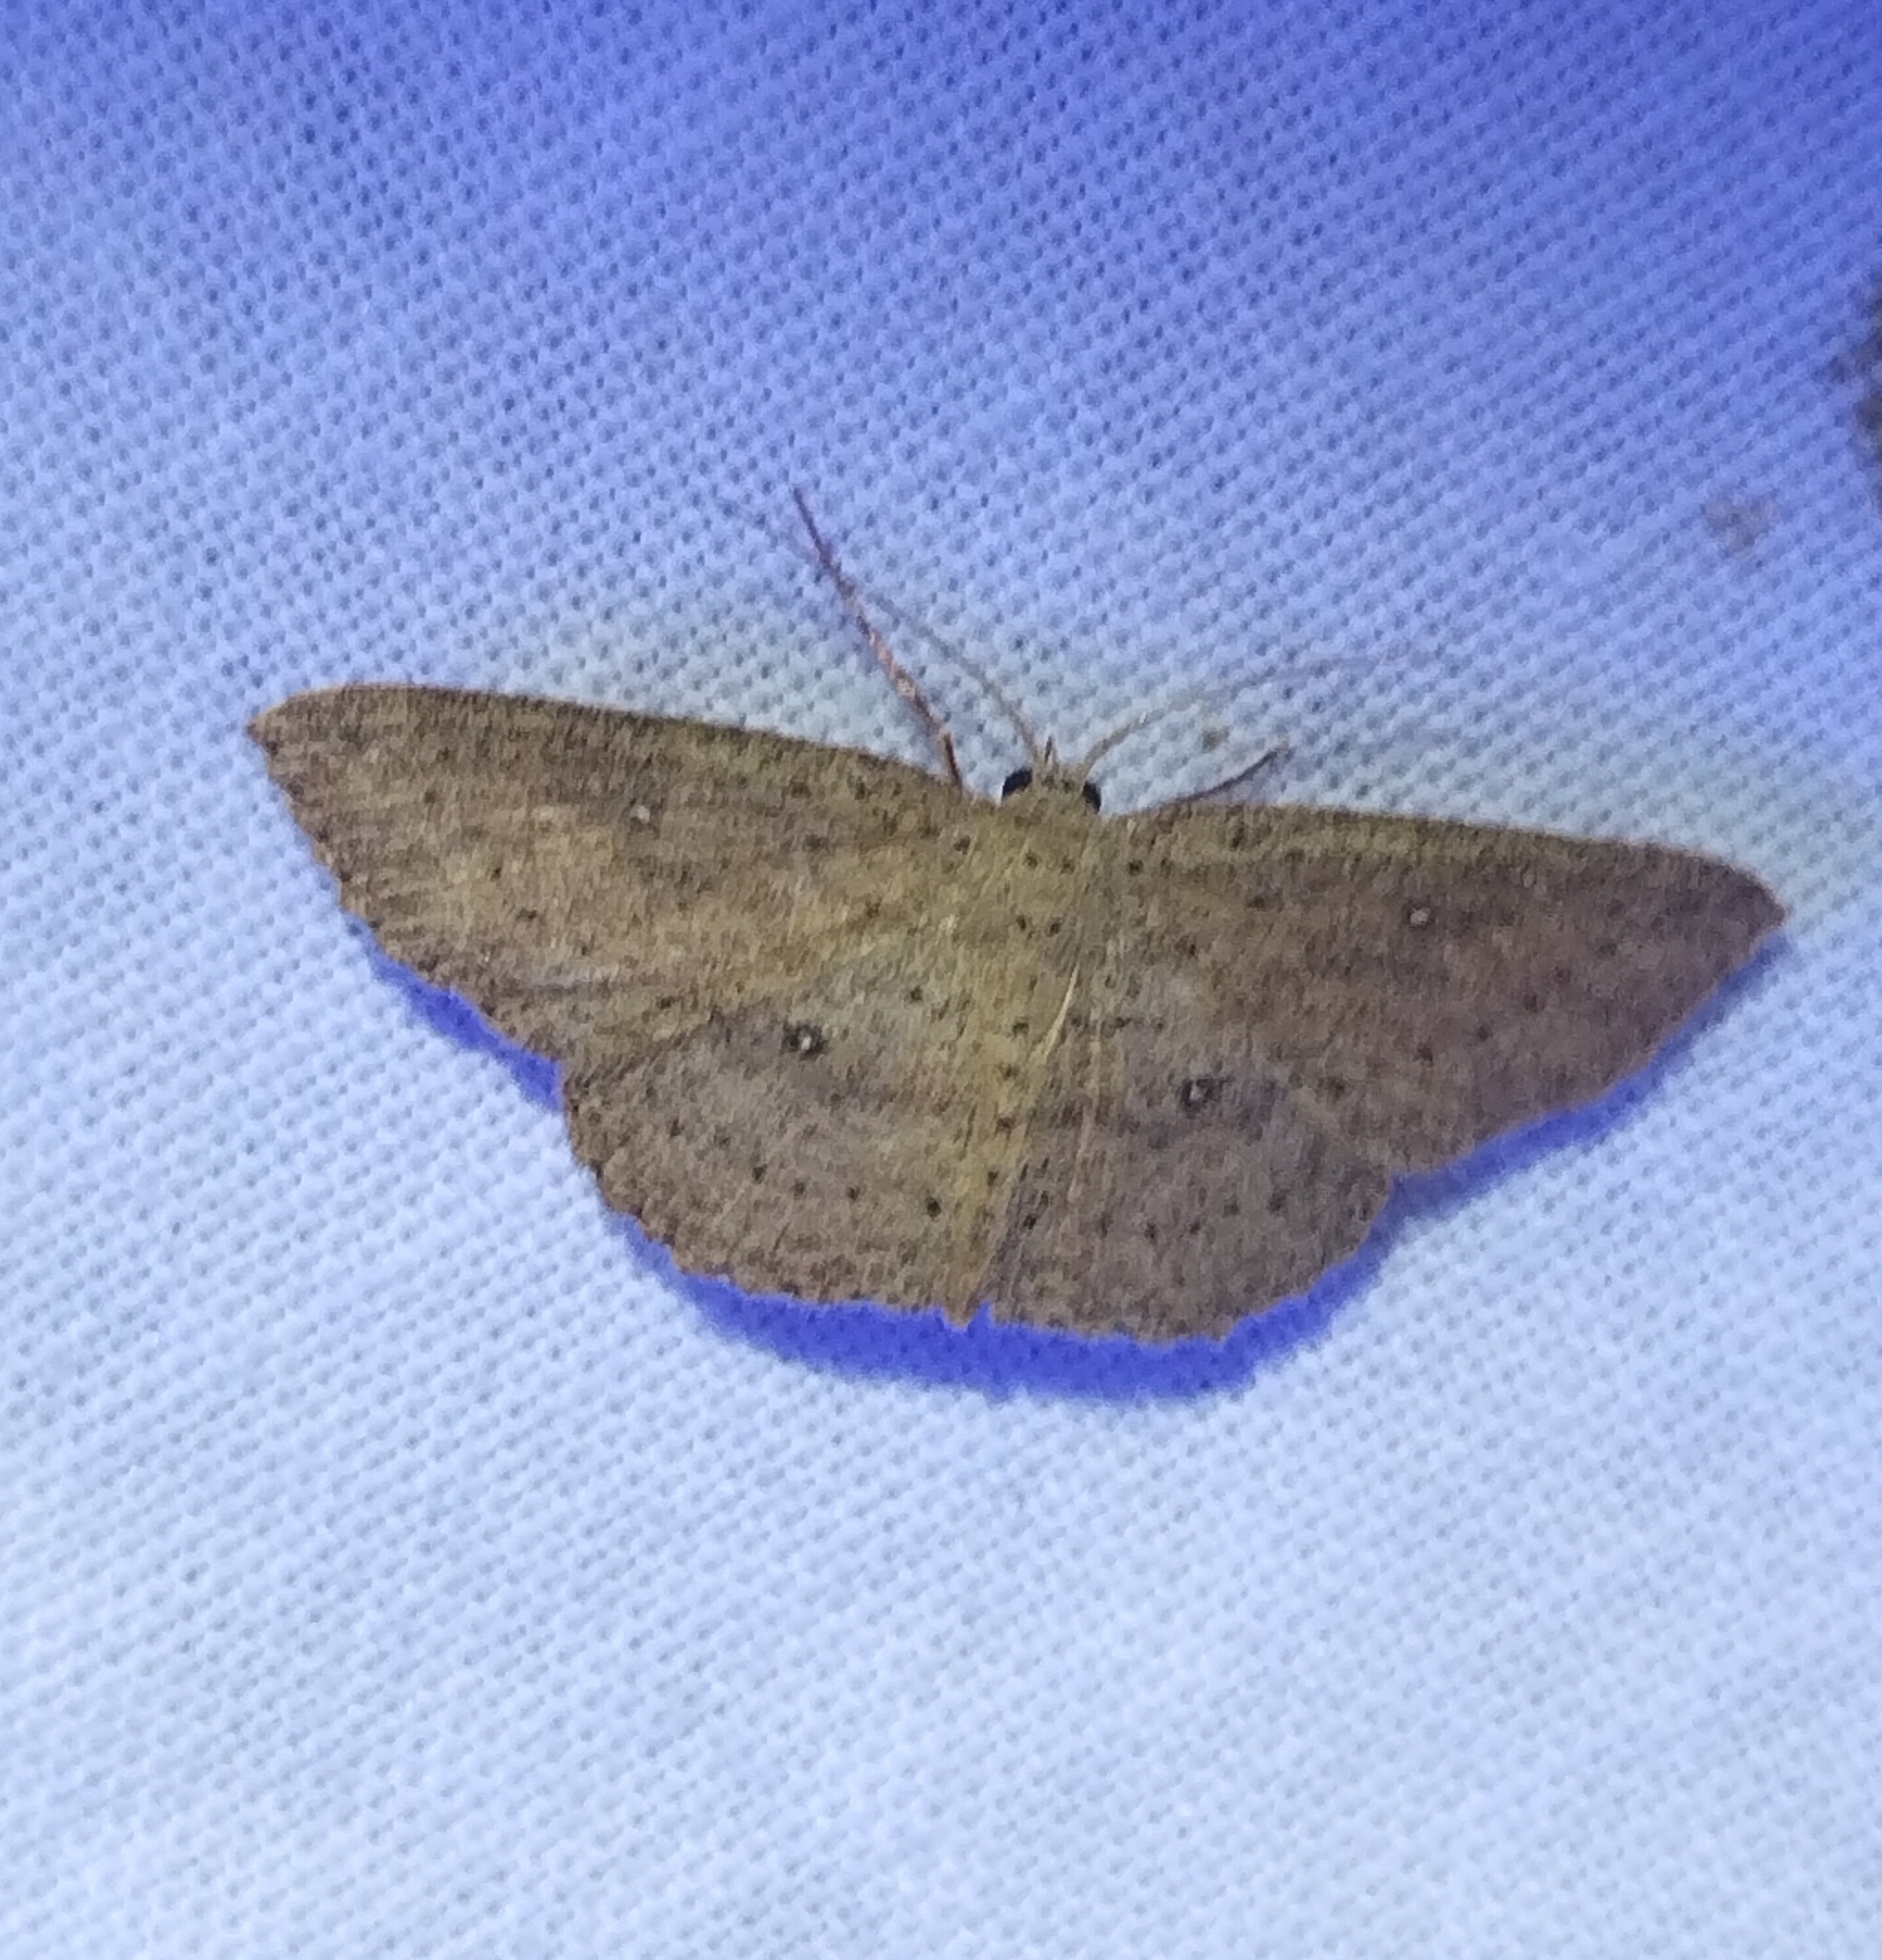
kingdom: Animalia
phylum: Arthropoda
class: Insecta
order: Lepidoptera
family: Geometridae
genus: Cyclophora
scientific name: Cyclophora myrtaria
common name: Waxmyrtle wave moth
